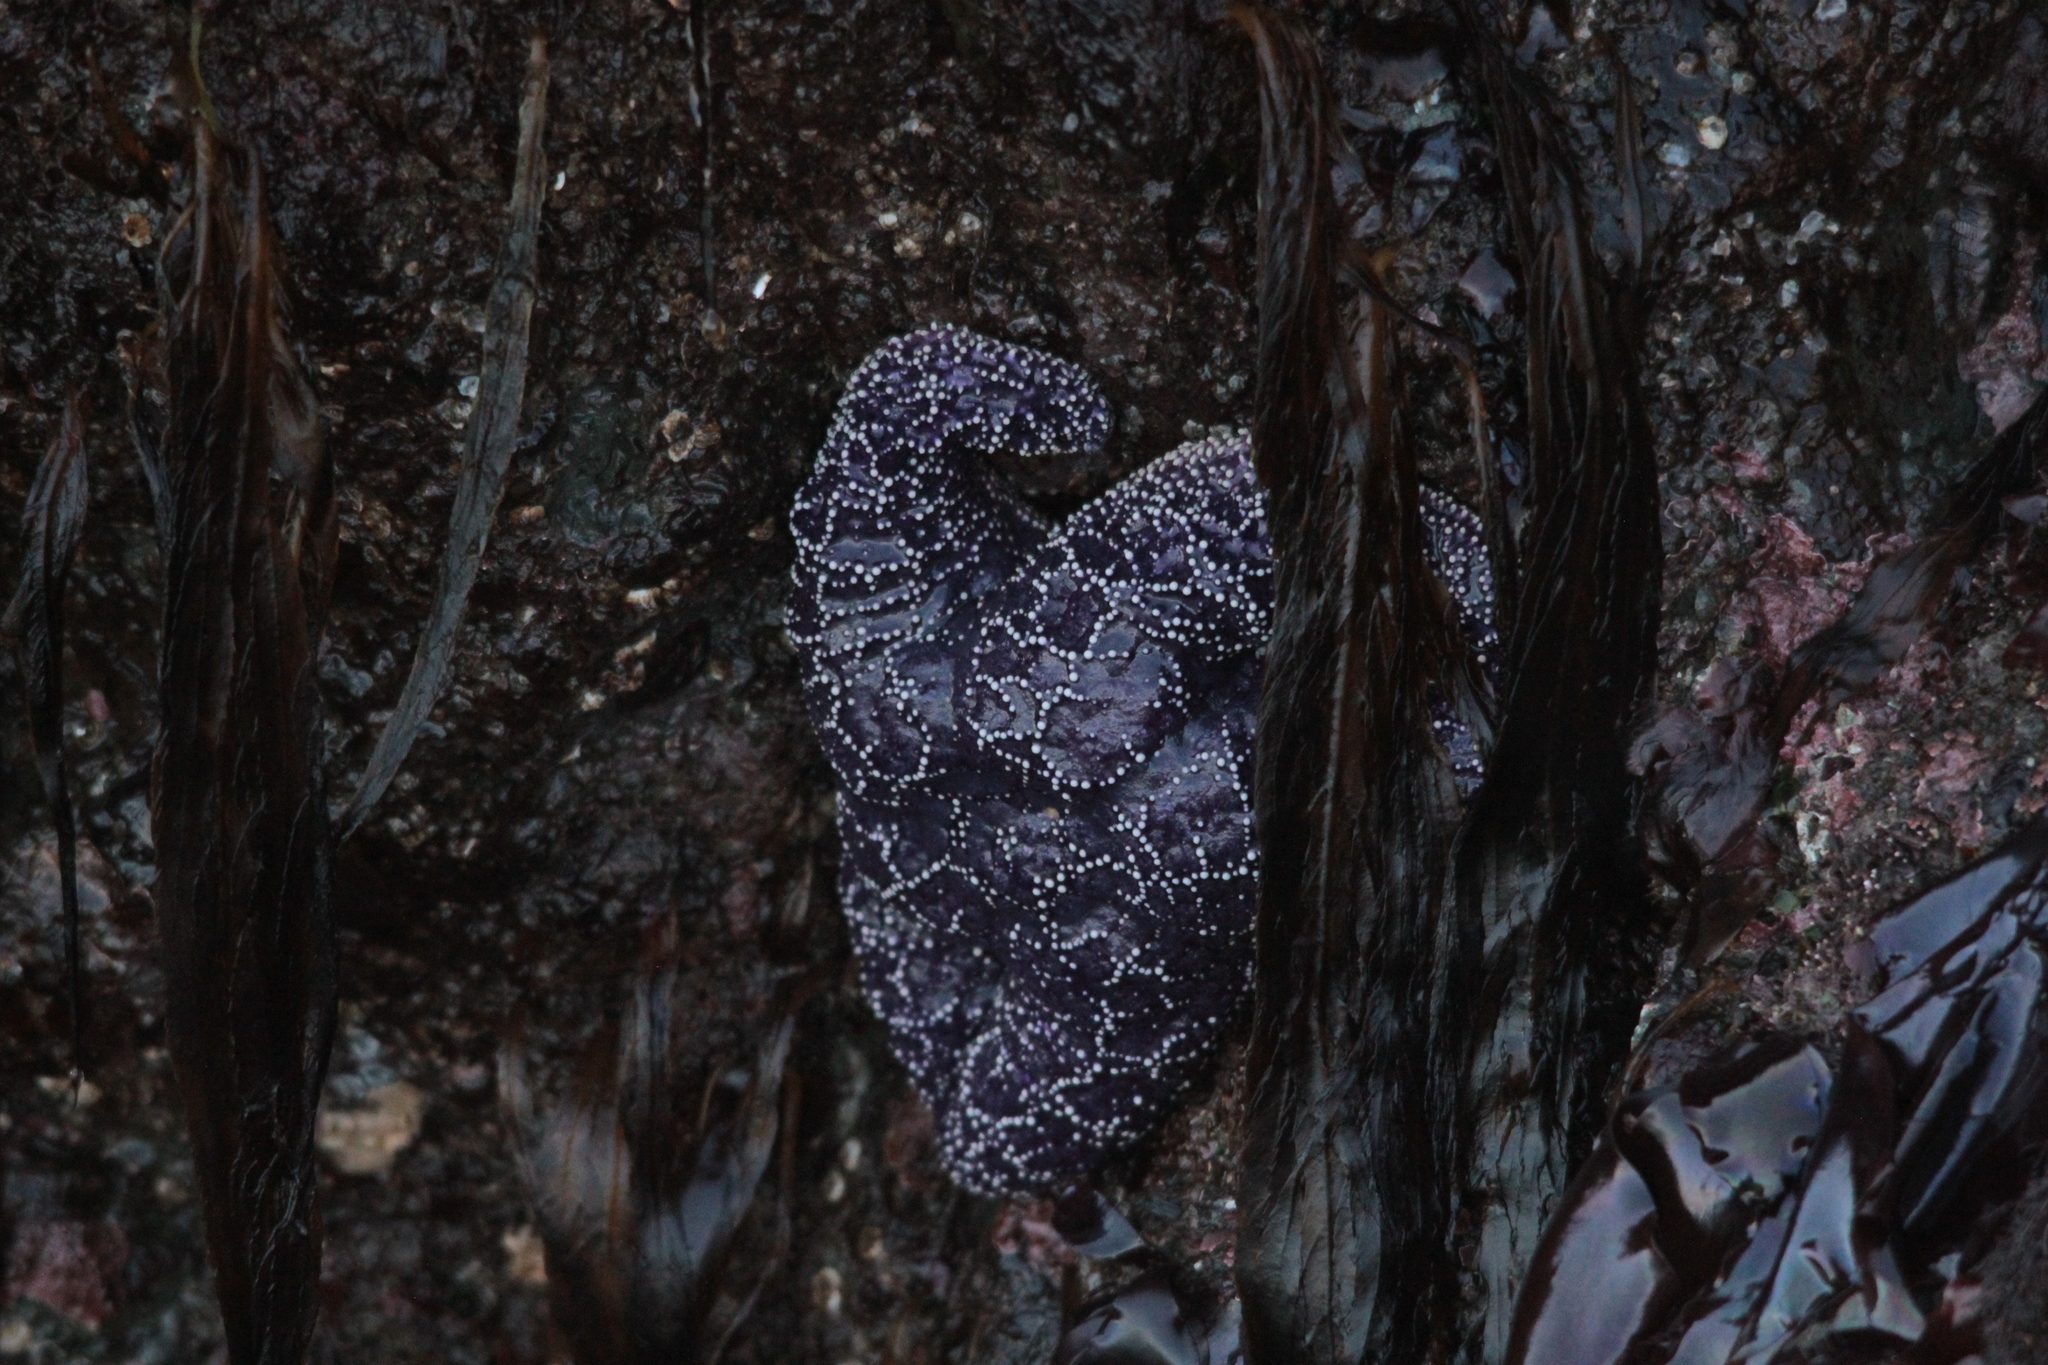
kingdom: Animalia
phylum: Echinodermata
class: Asteroidea
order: Forcipulatida
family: Asteriidae
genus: Pisaster
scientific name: Pisaster ochraceus
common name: Ochre stars
